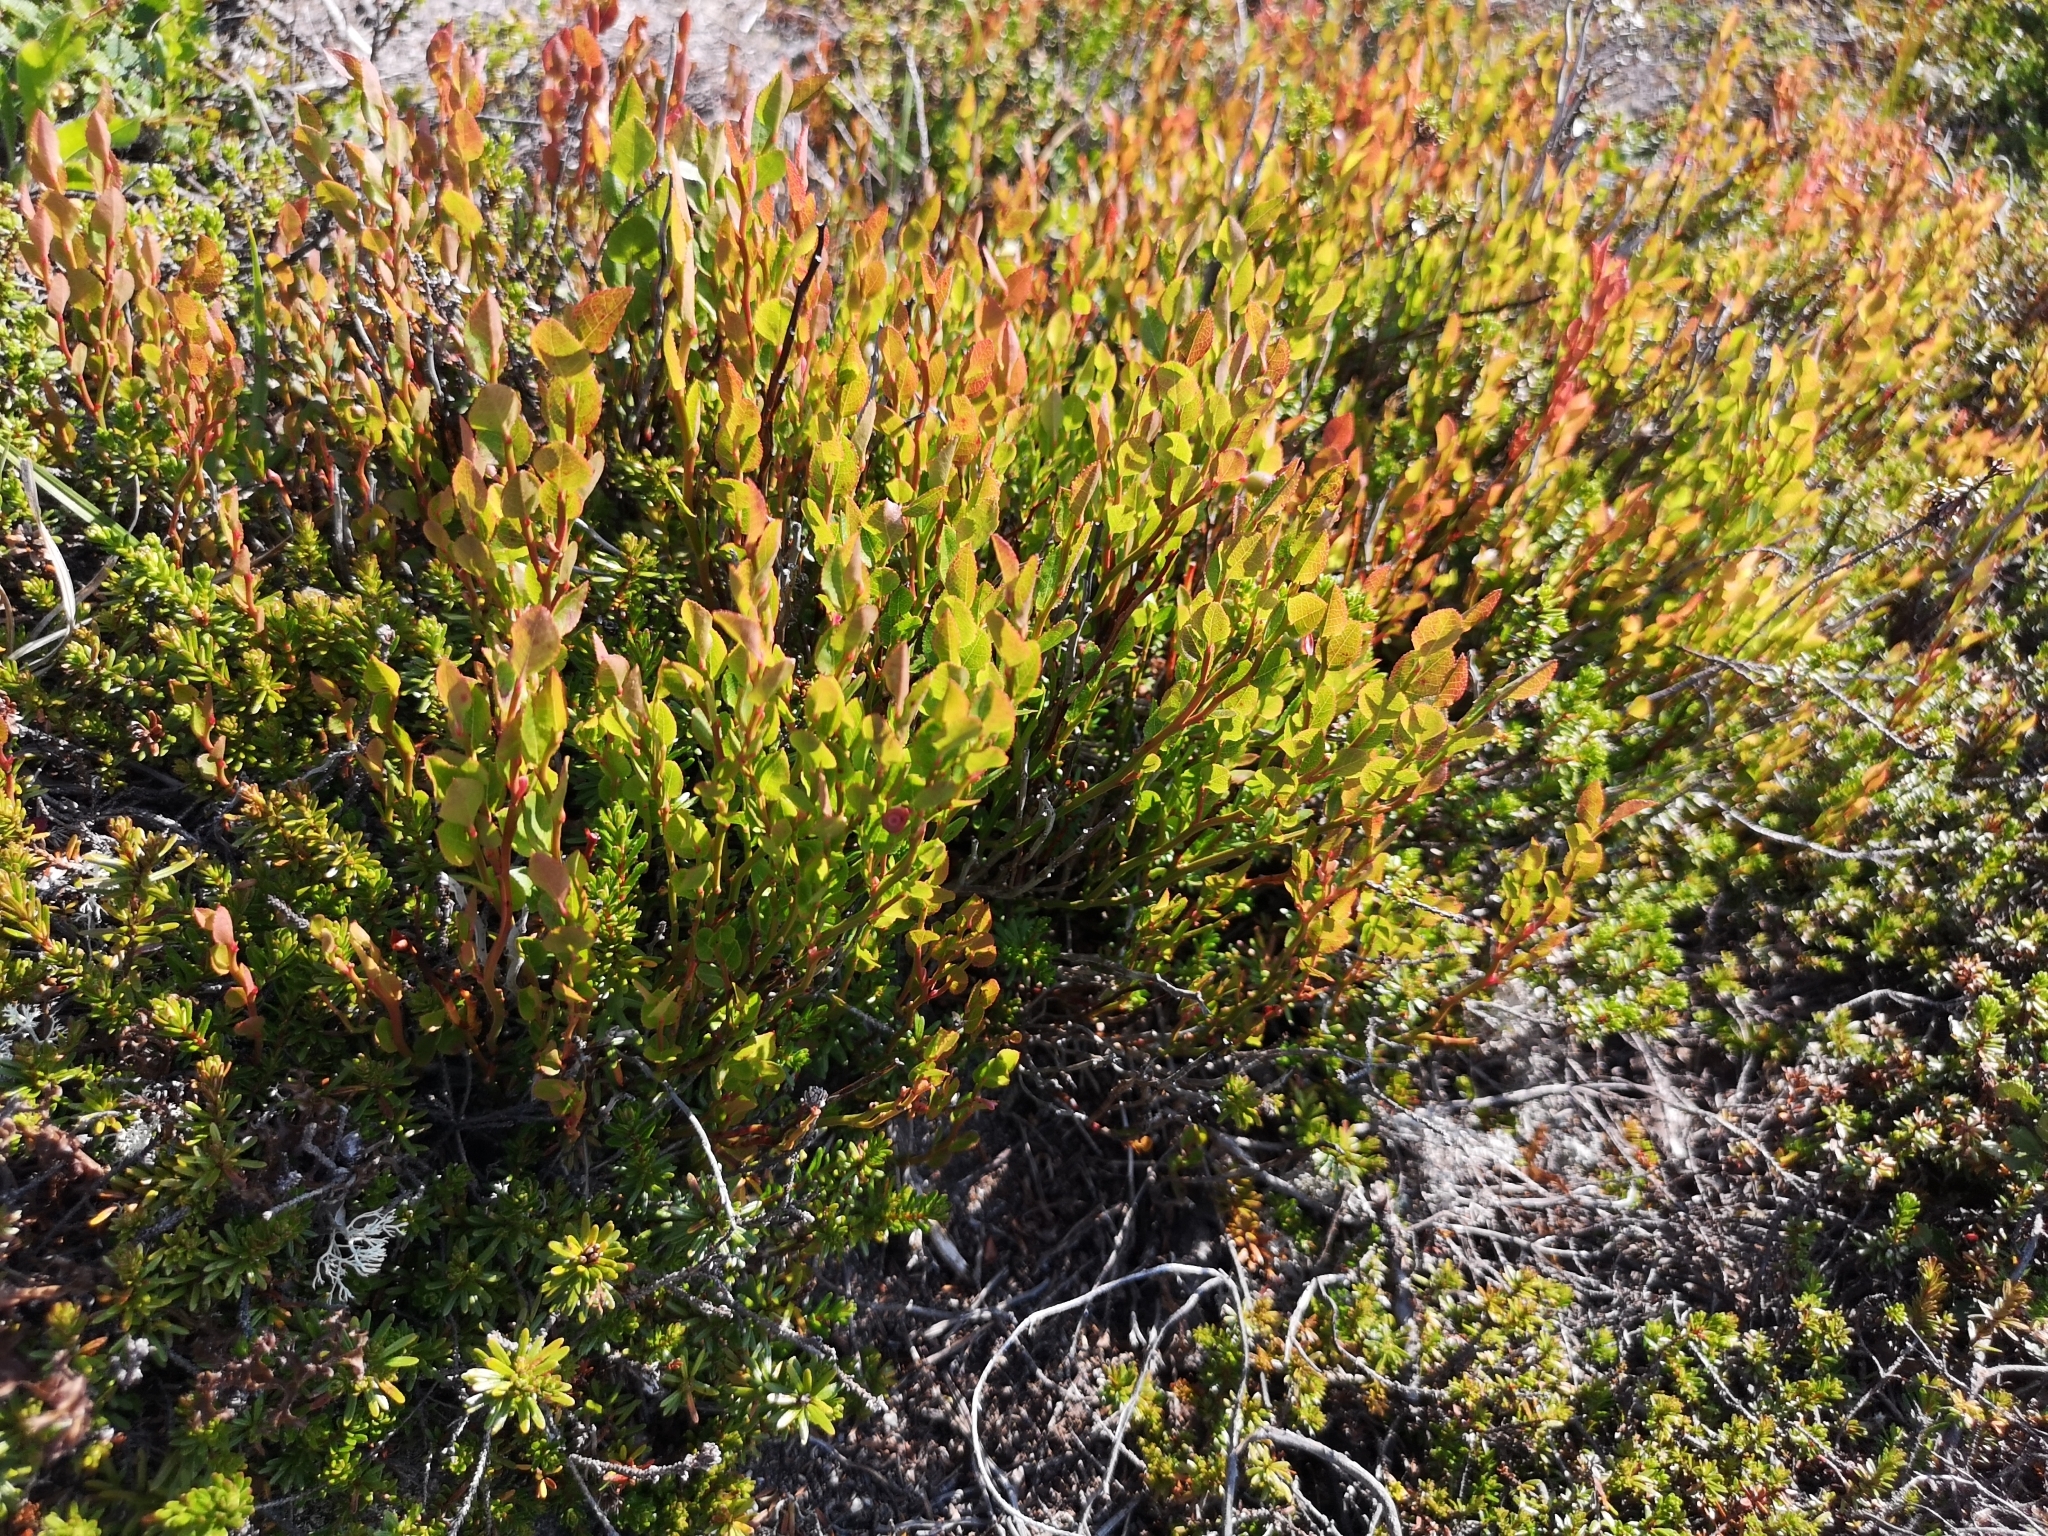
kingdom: Plantae
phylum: Tracheophyta
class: Magnoliopsida
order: Ericales
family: Ericaceae
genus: Vaccinium
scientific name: Vaccinium myrtillus
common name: Bilberry
